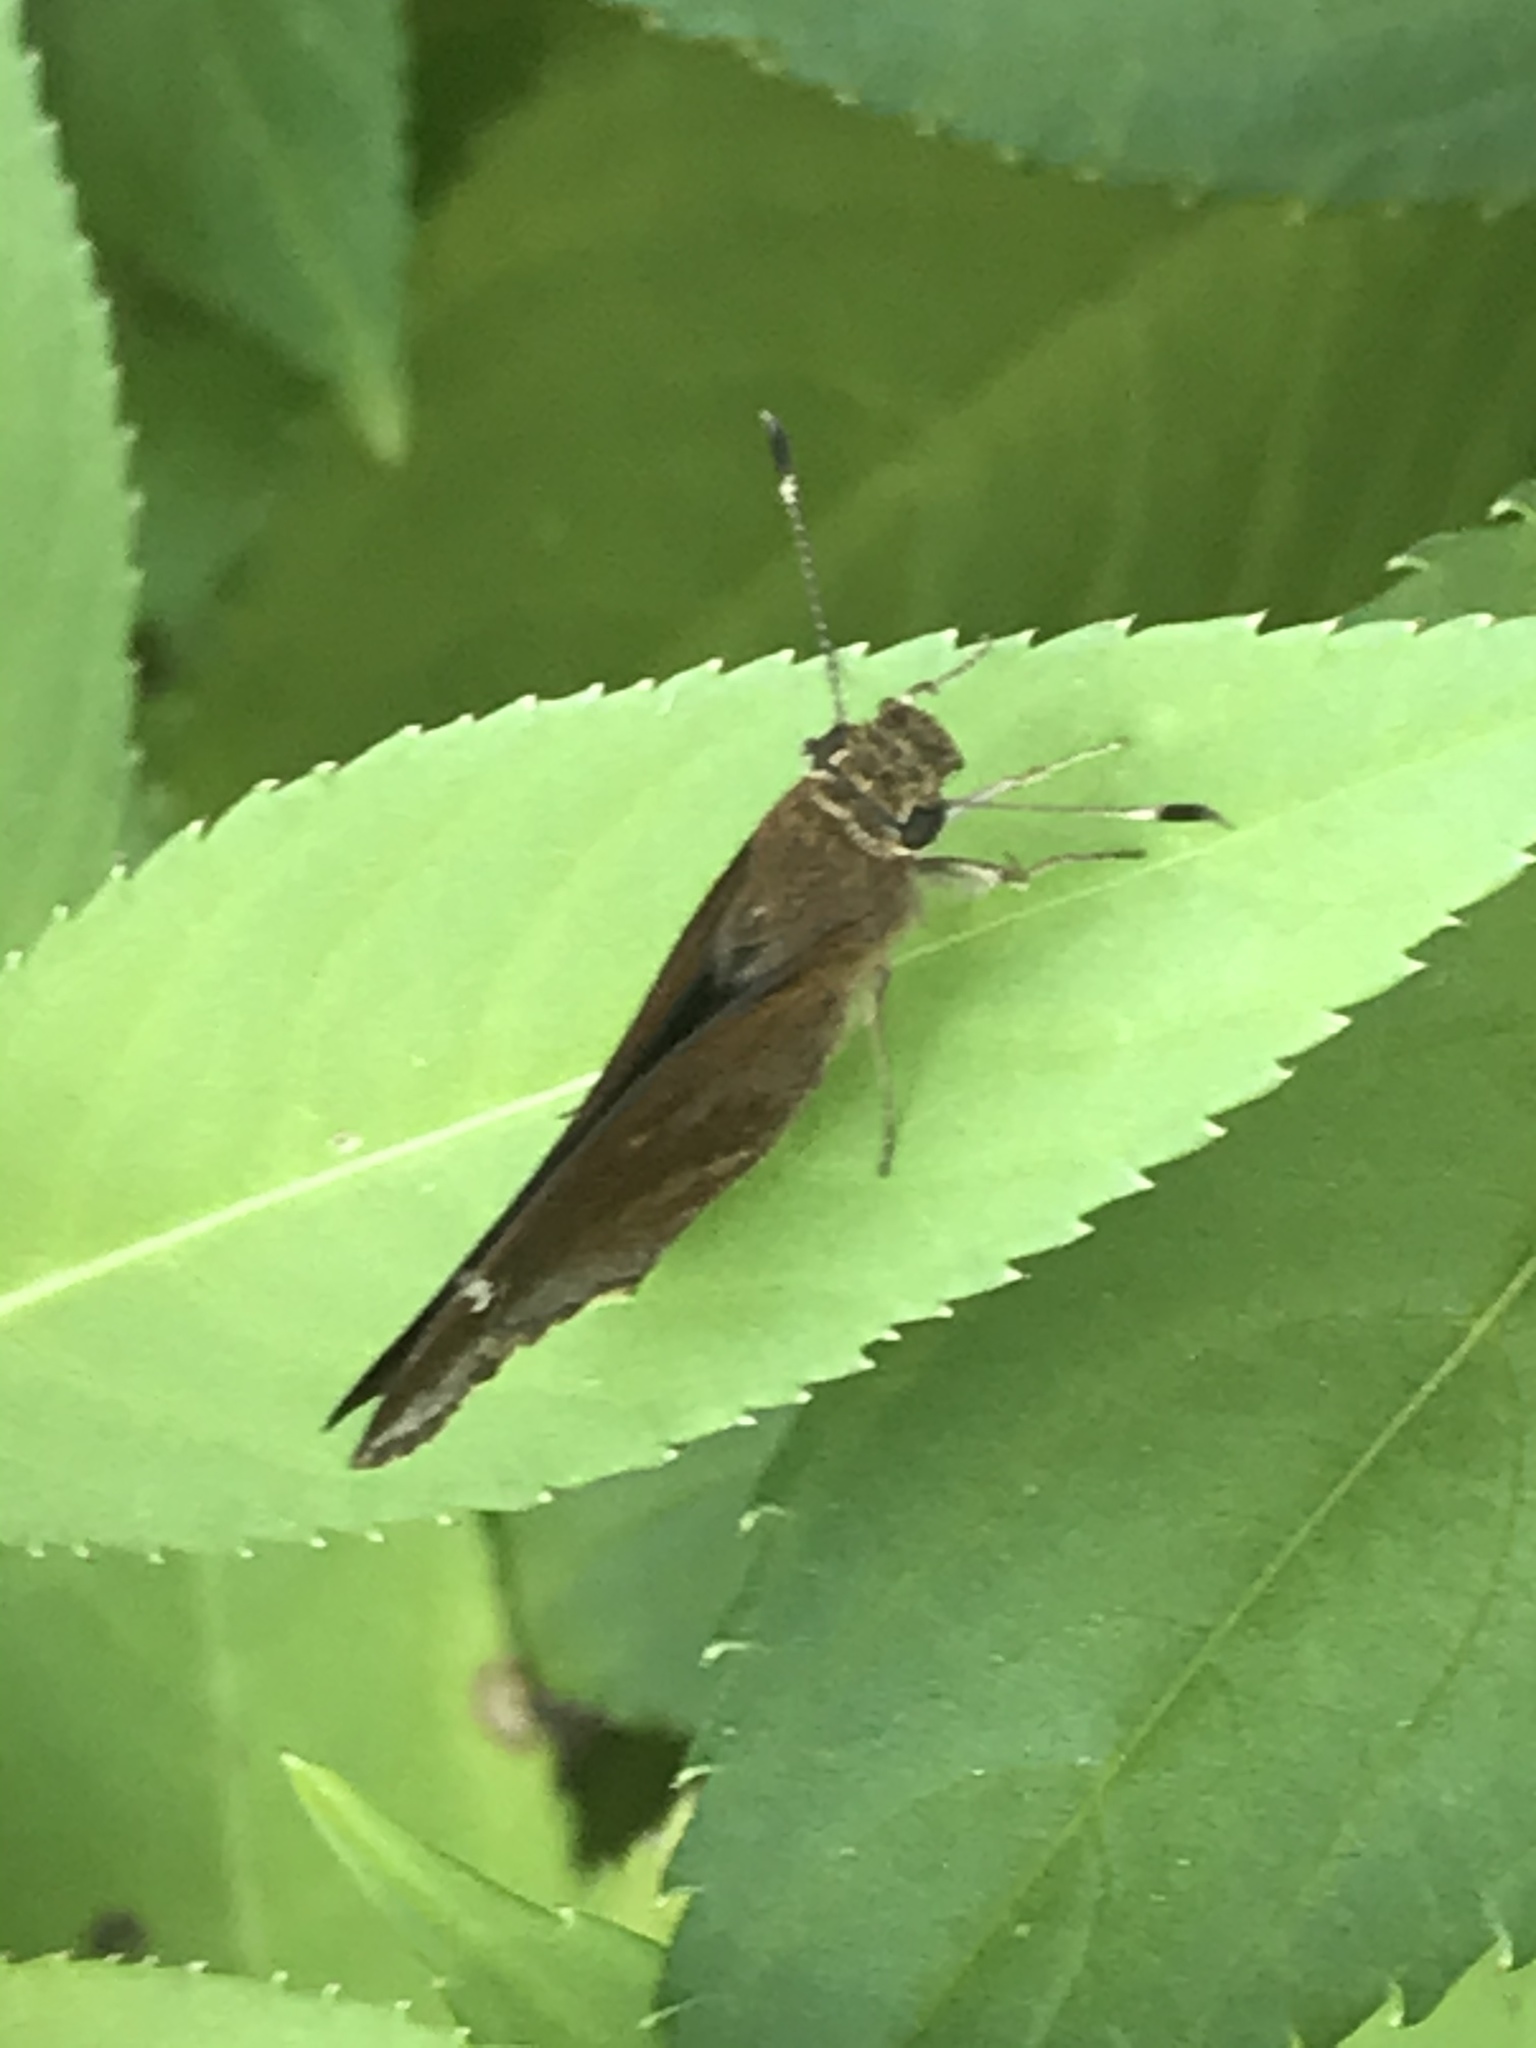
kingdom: Animalia
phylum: Arthropoda
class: Insecta
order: Lepidoptera
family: Hesperiidae
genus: Lerema
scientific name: Lerema accius
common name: Clouded skipper
